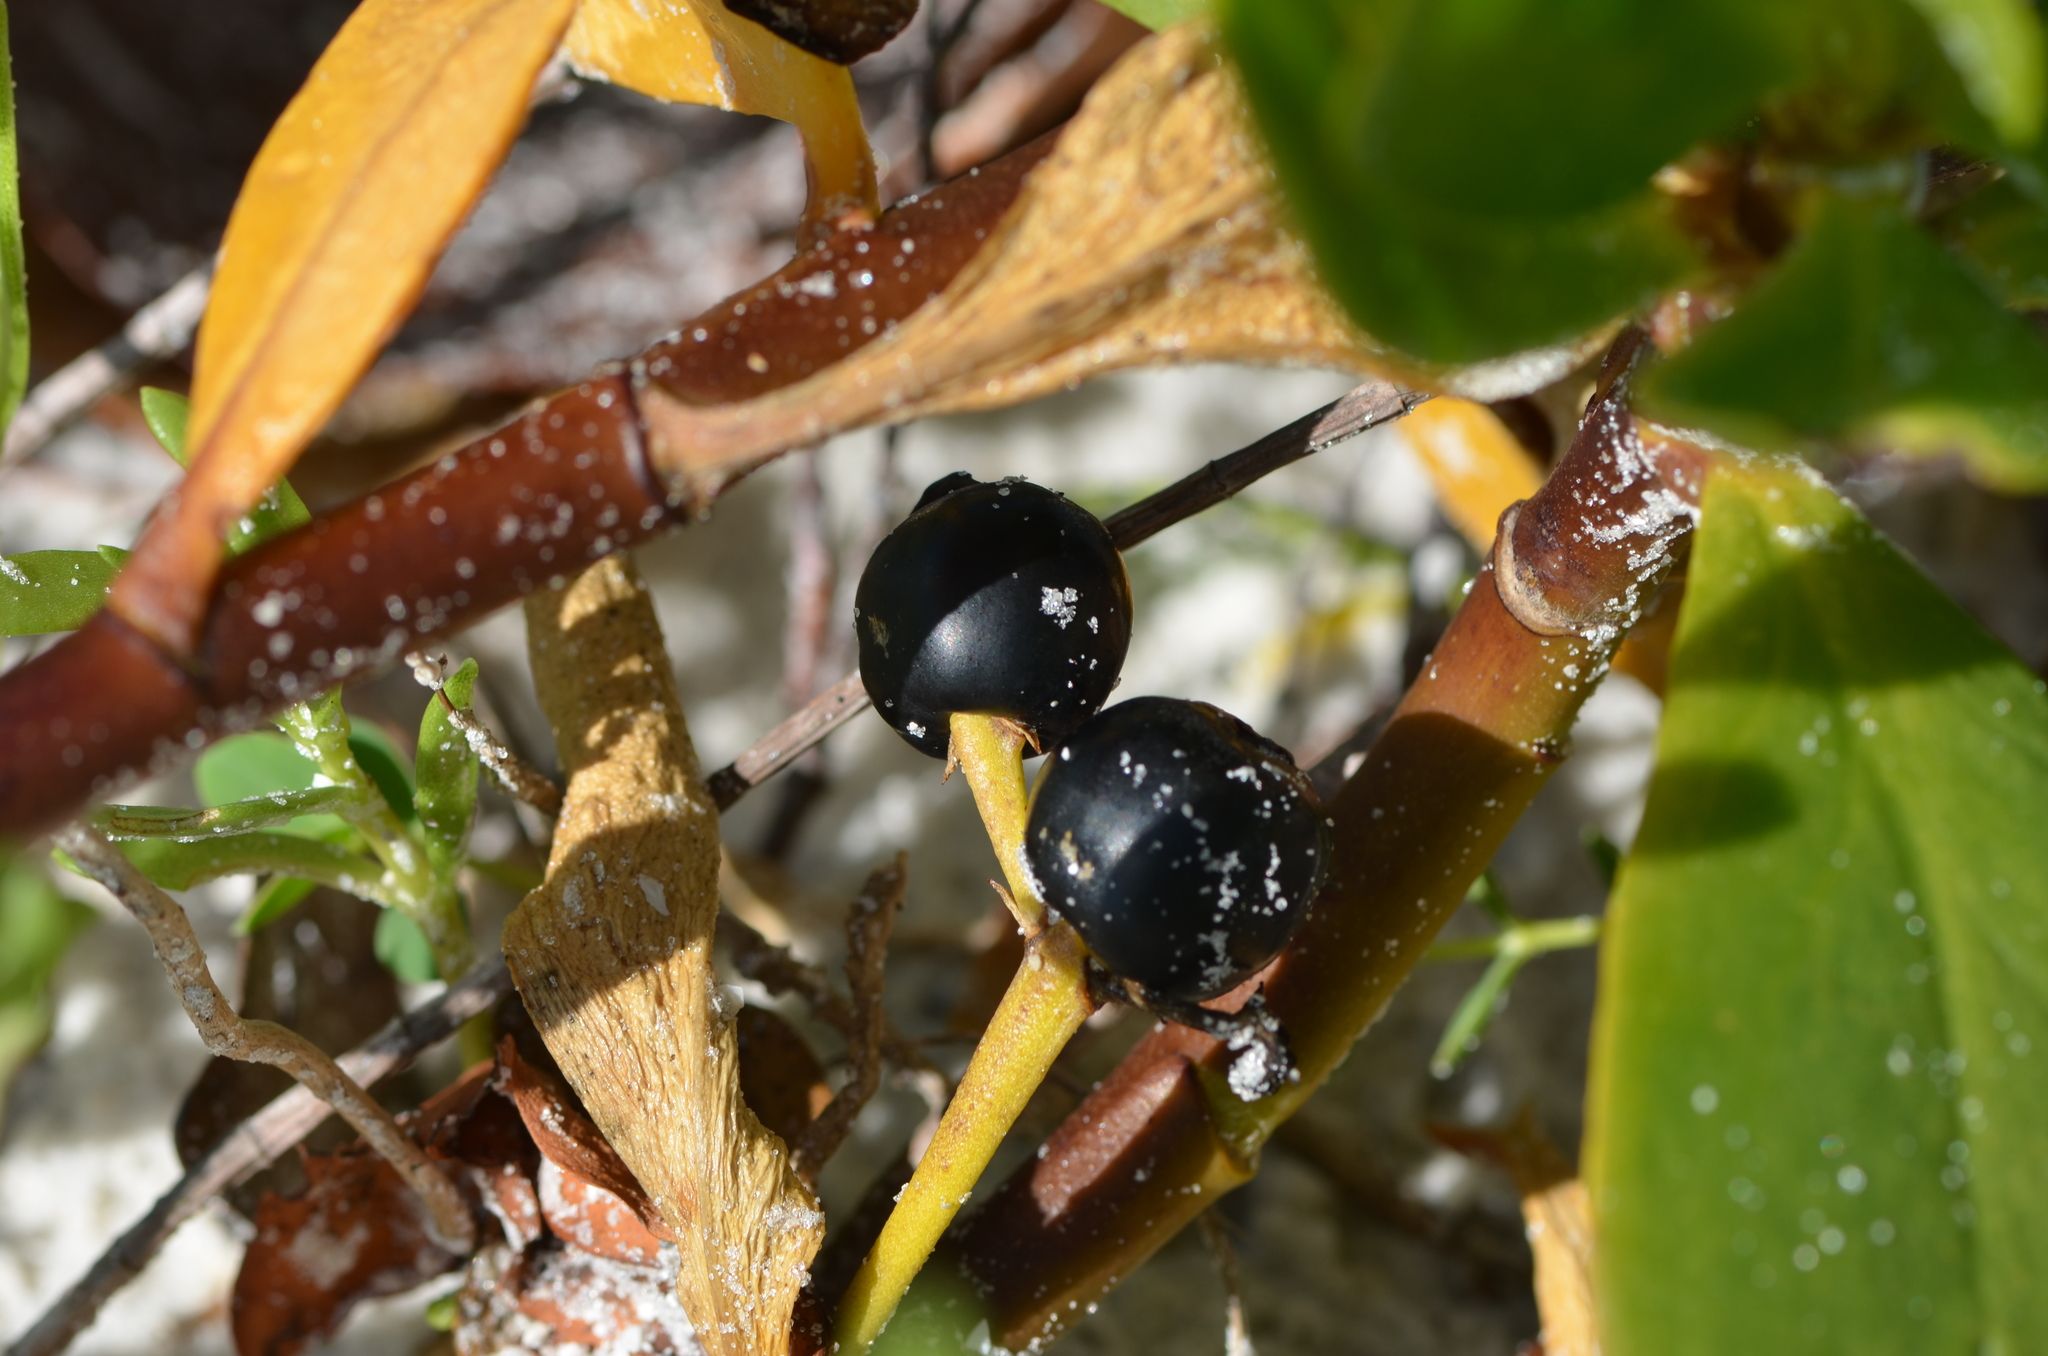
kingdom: Plantae
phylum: Tracheophyta
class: Magnoliopsida
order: Asterales
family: Goodeniaceae
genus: Scaevola
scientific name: Scaevola plumieri
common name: Gull feed
